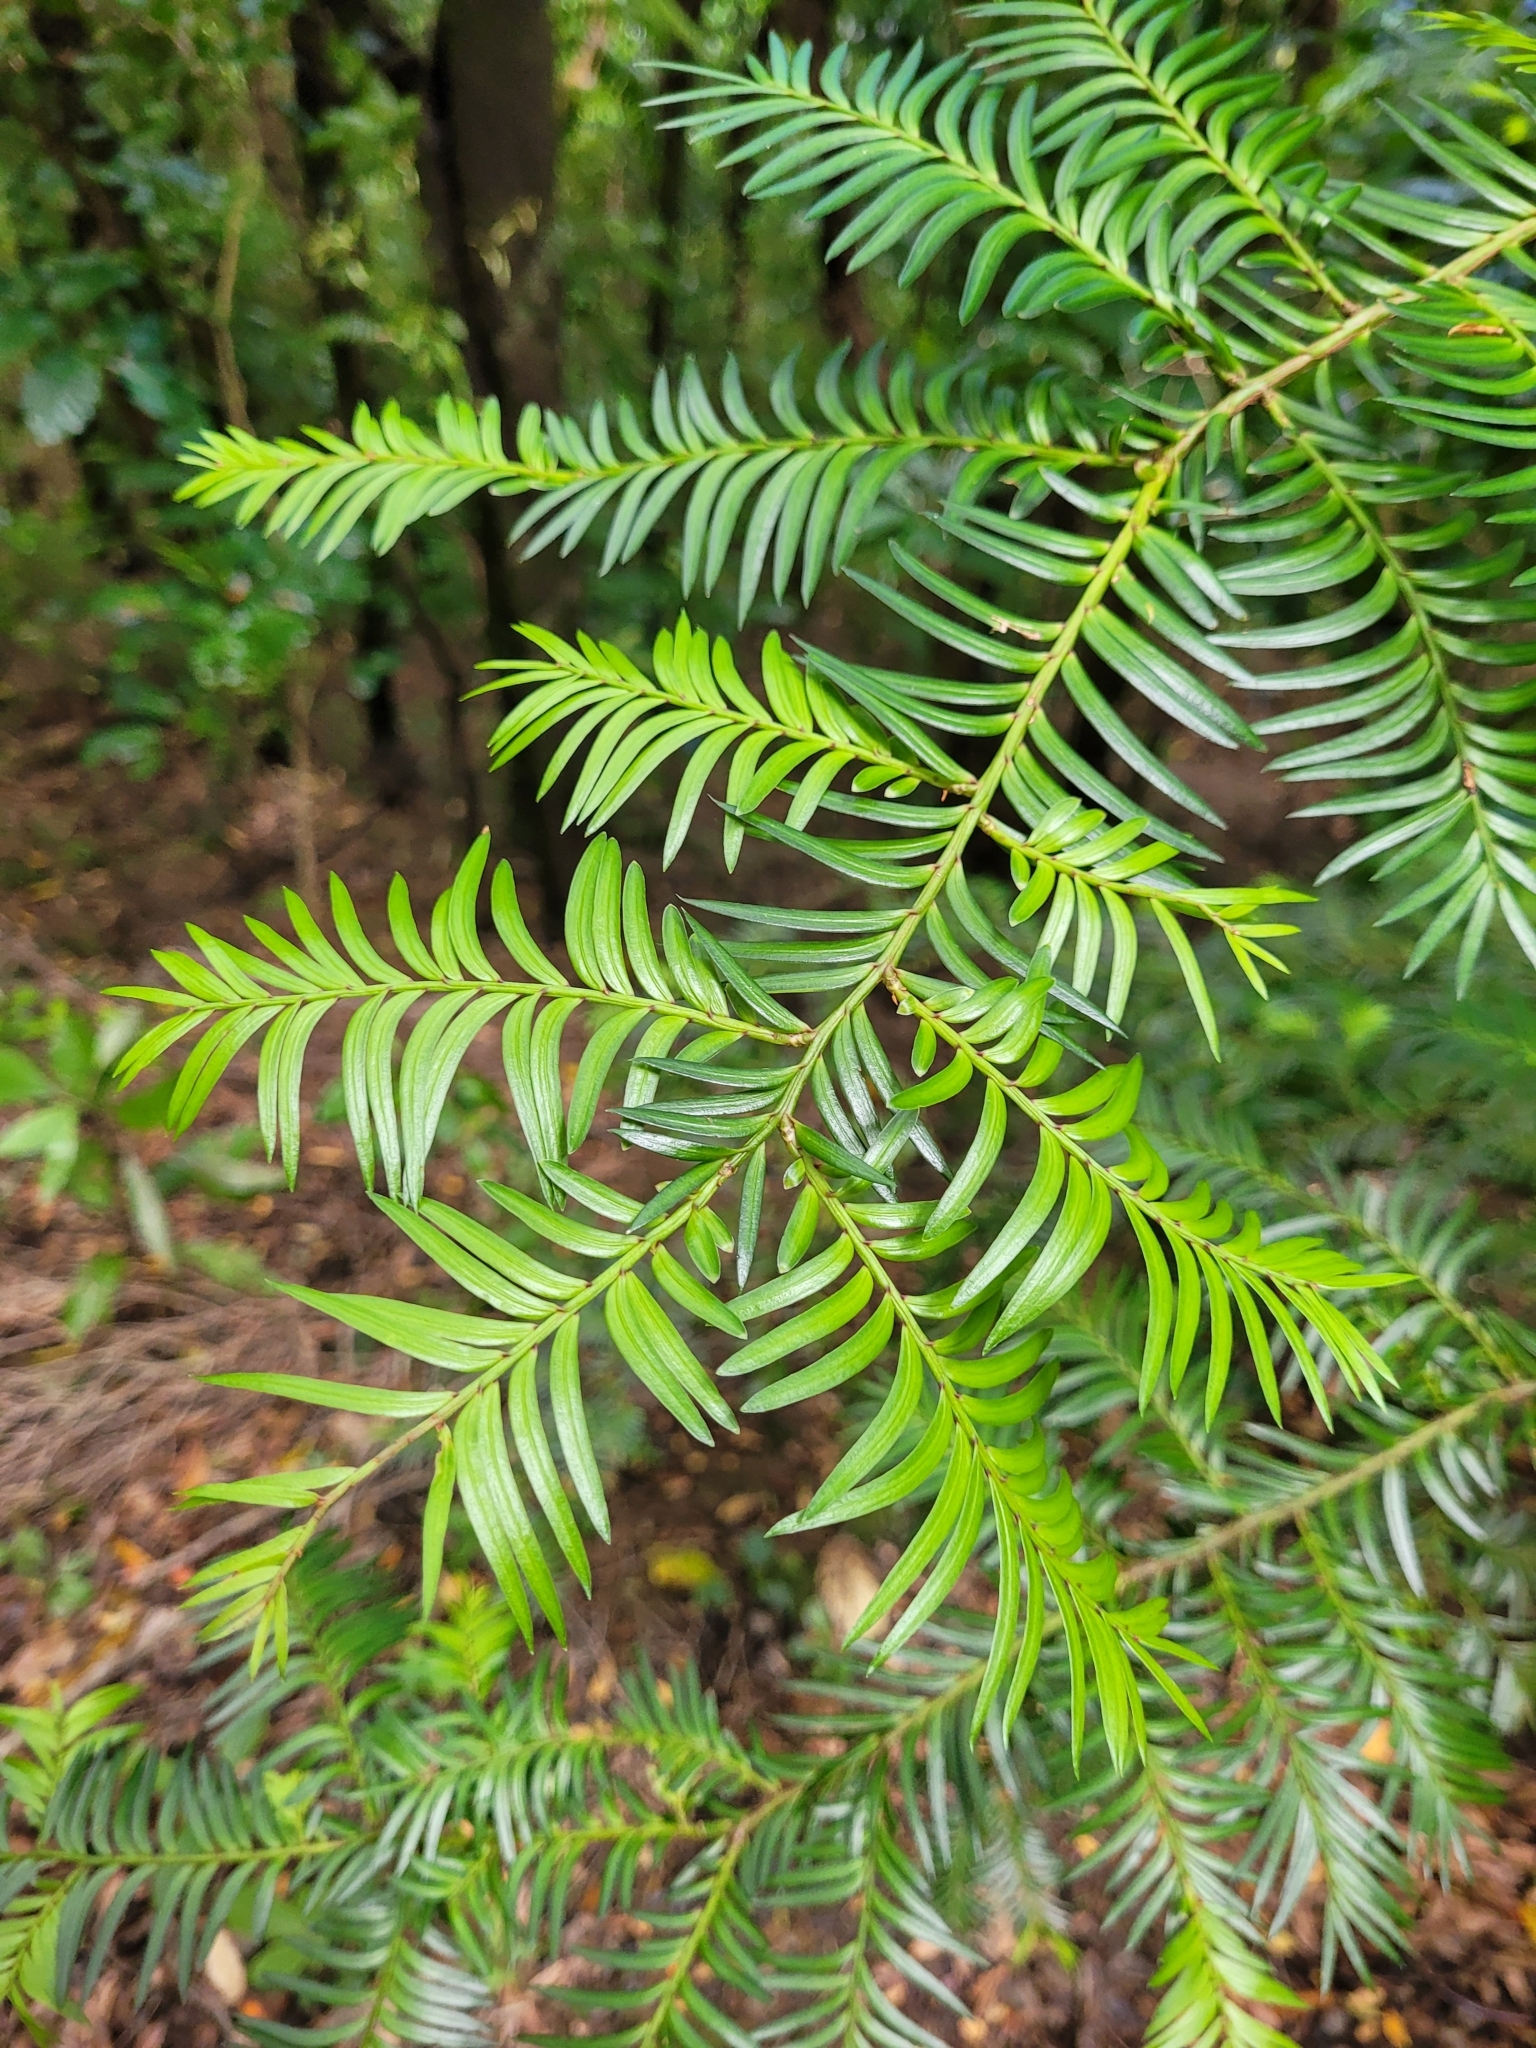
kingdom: Plantae
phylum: Tracheophyta
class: Pinopsida
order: Pinales
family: Podocarpaceae
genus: Prumnopitys
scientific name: Prumnopitys ferruginea
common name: Brown pine
